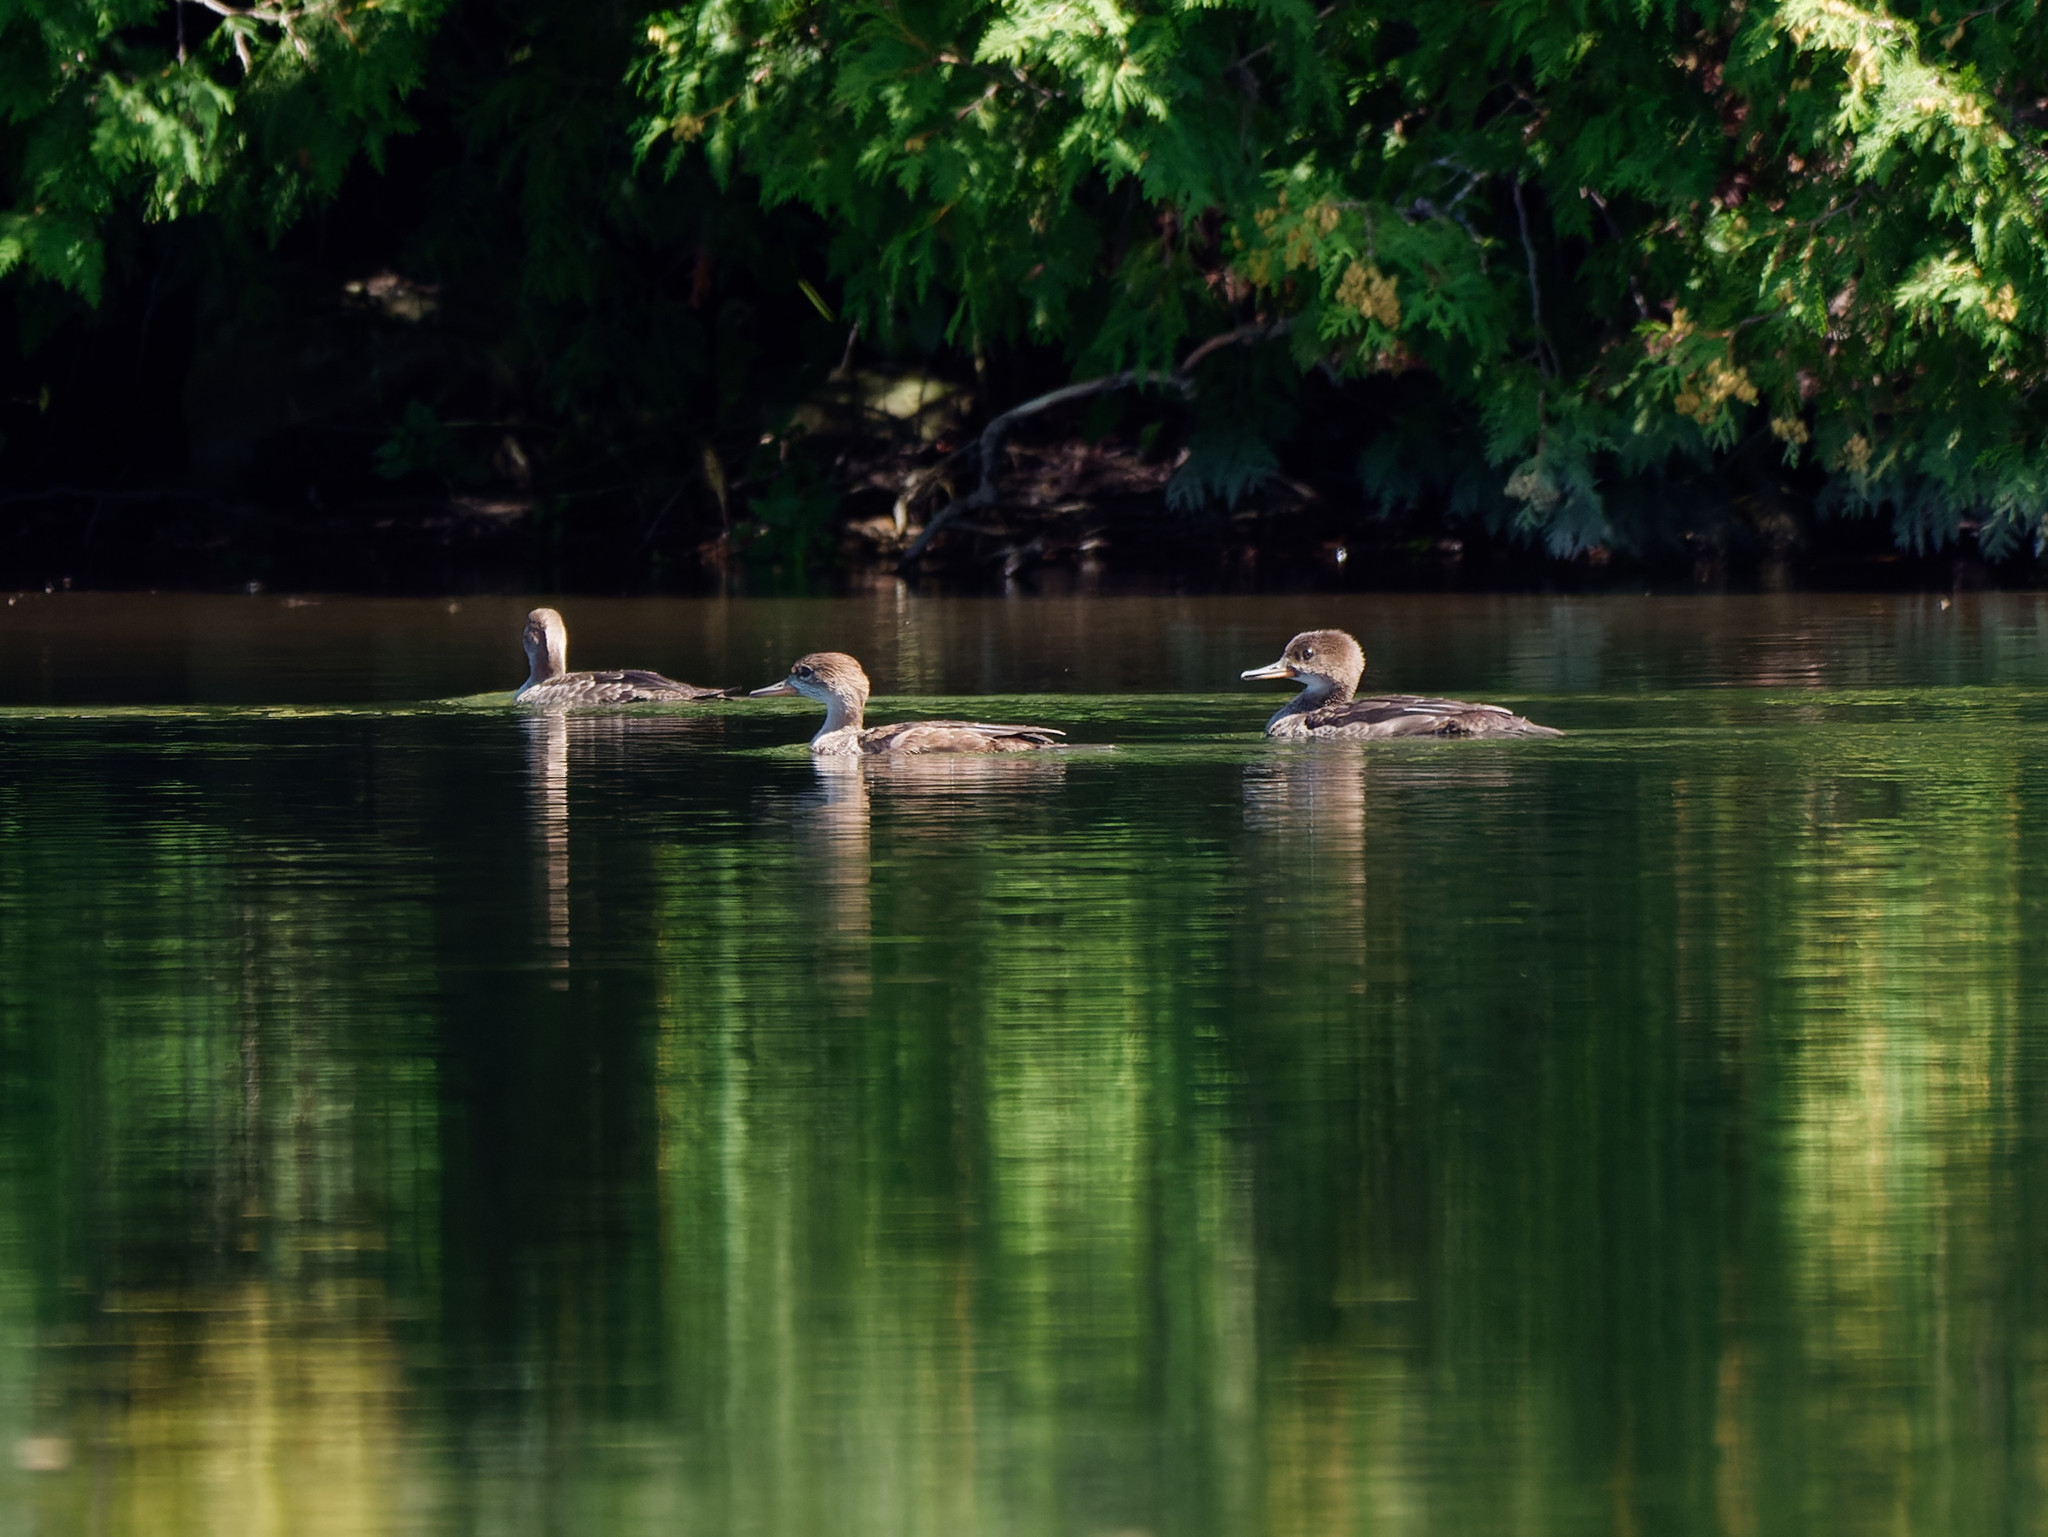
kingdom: Animalia
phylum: Chordata
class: Aves
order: Anseriformes
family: Anatidae
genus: Lophodytes
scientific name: Lophodytes cucullatus
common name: Hooded merganser
